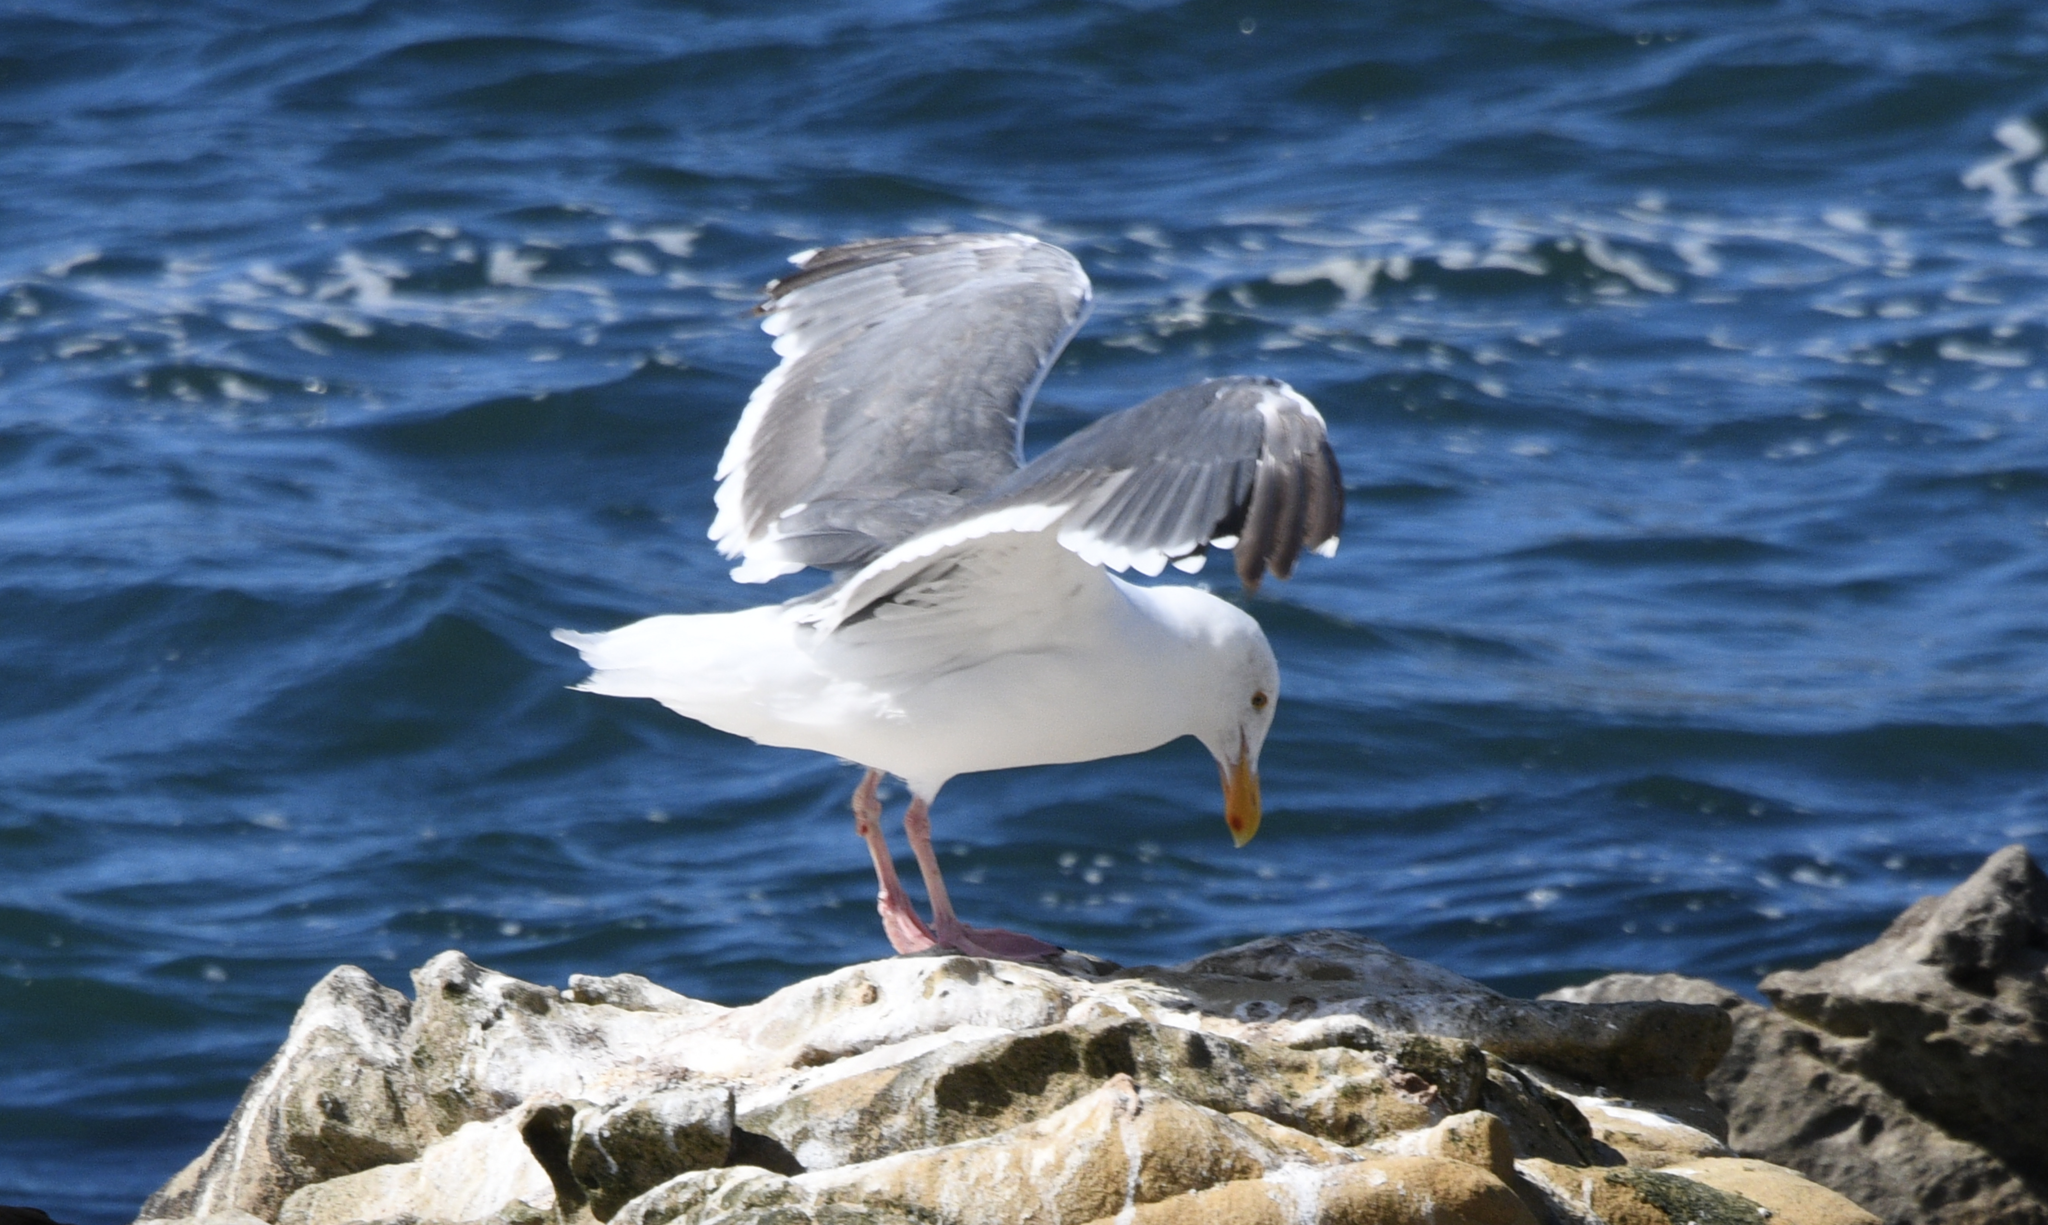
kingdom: Animalia
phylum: Chordata
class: Aves
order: Charadriiformes
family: Laridae
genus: Larus
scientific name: Larus occidentalis
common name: Western gull
